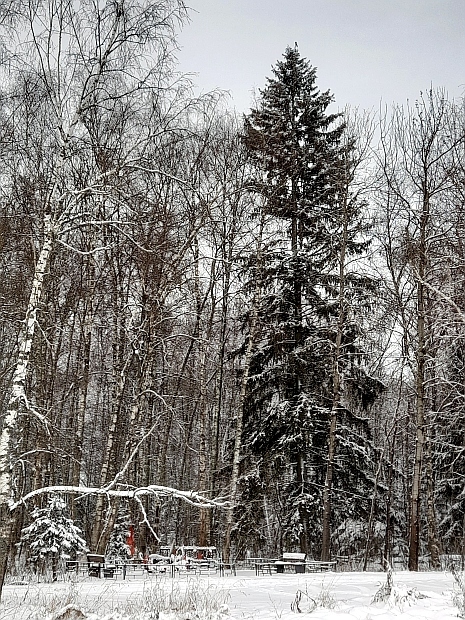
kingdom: Plantae
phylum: Tracheophyta
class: Pinopsida
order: Pinales
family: Pinaceae
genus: Picea
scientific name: Picea abies
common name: Norway spruce
